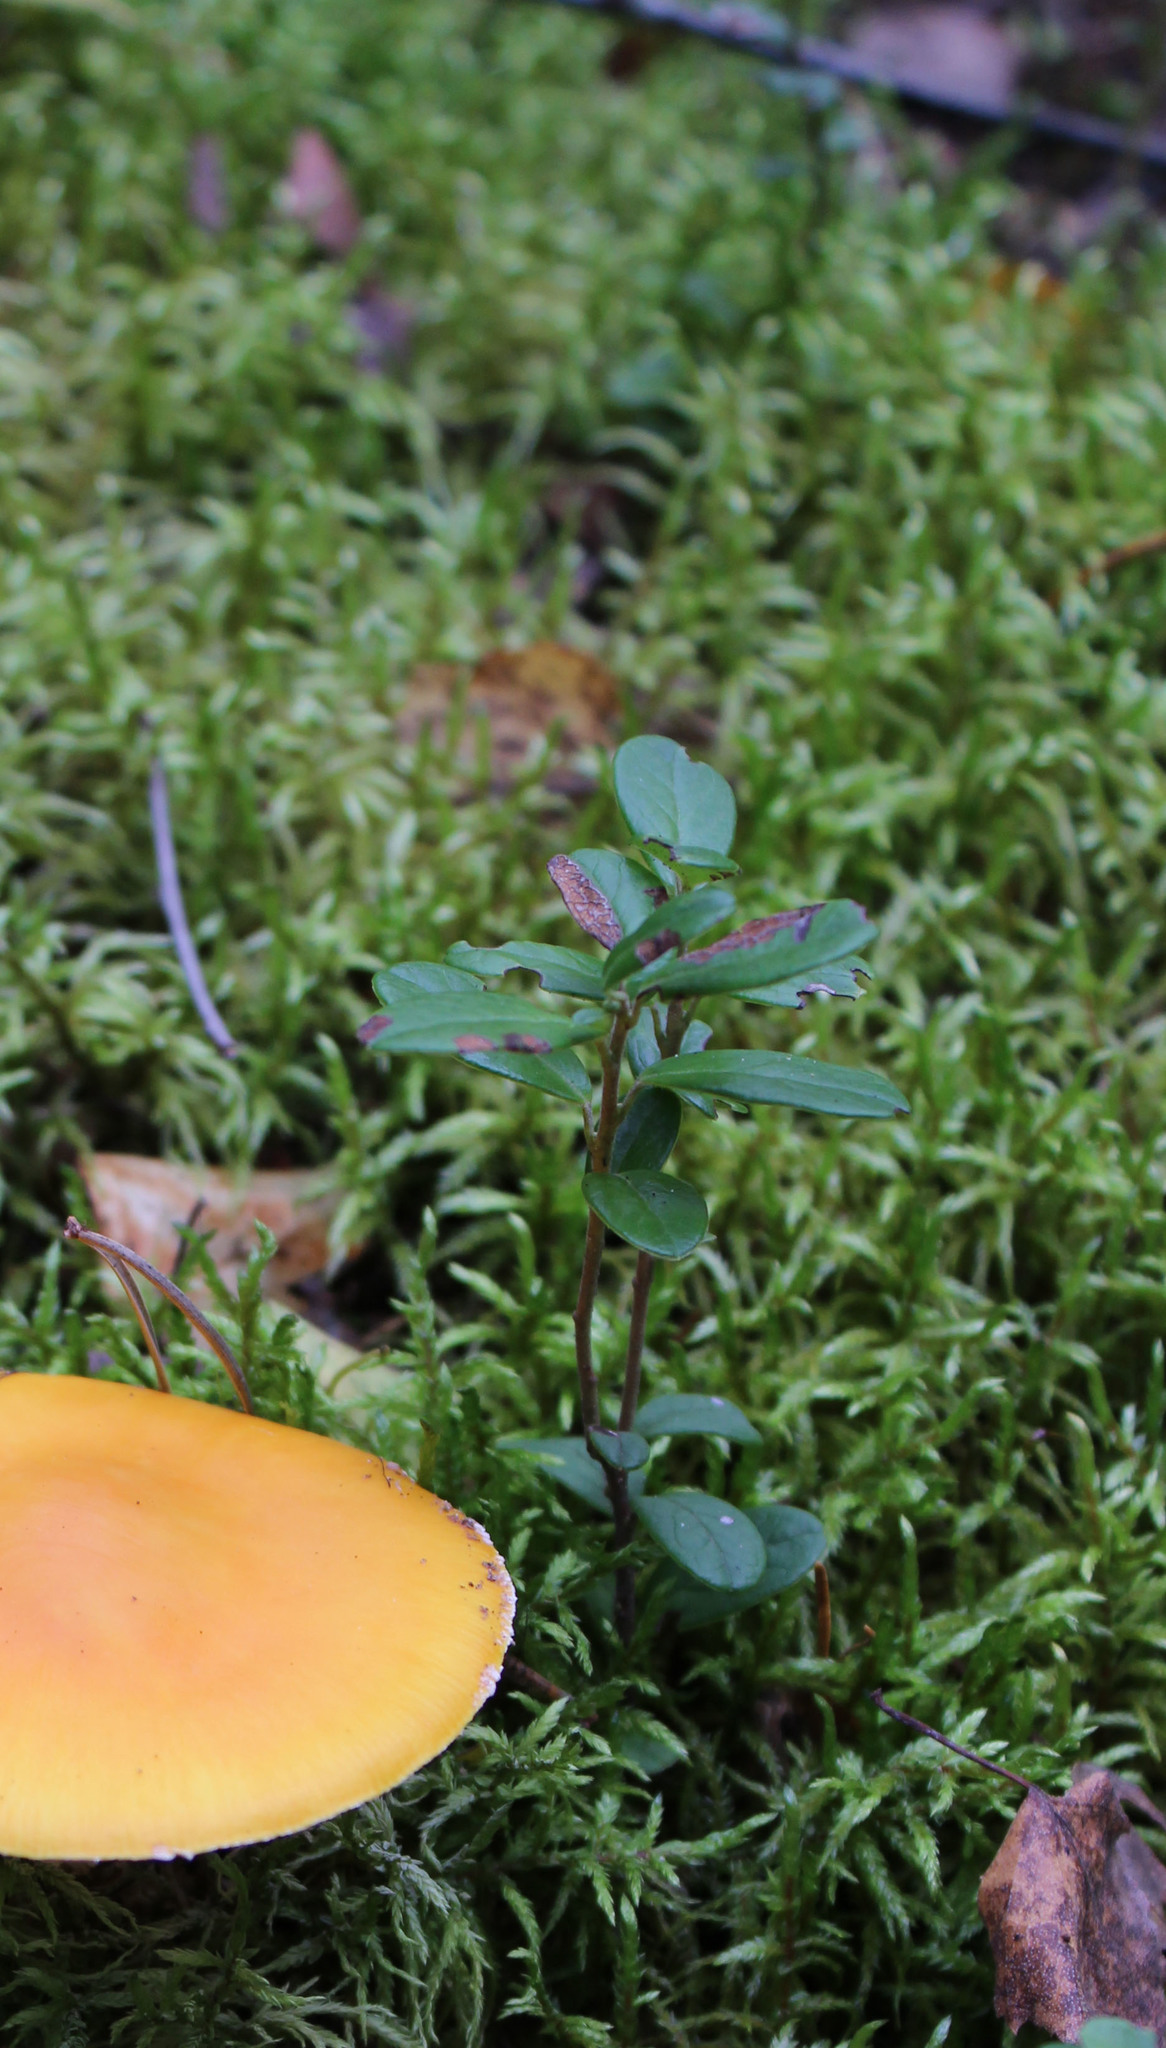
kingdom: Plantae
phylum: Tracheophyta
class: Magnoliopsida
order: Ericales
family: Ericaceae
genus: Vaccinium
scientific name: Vaccinium vitis-idaea
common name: Cowberry
